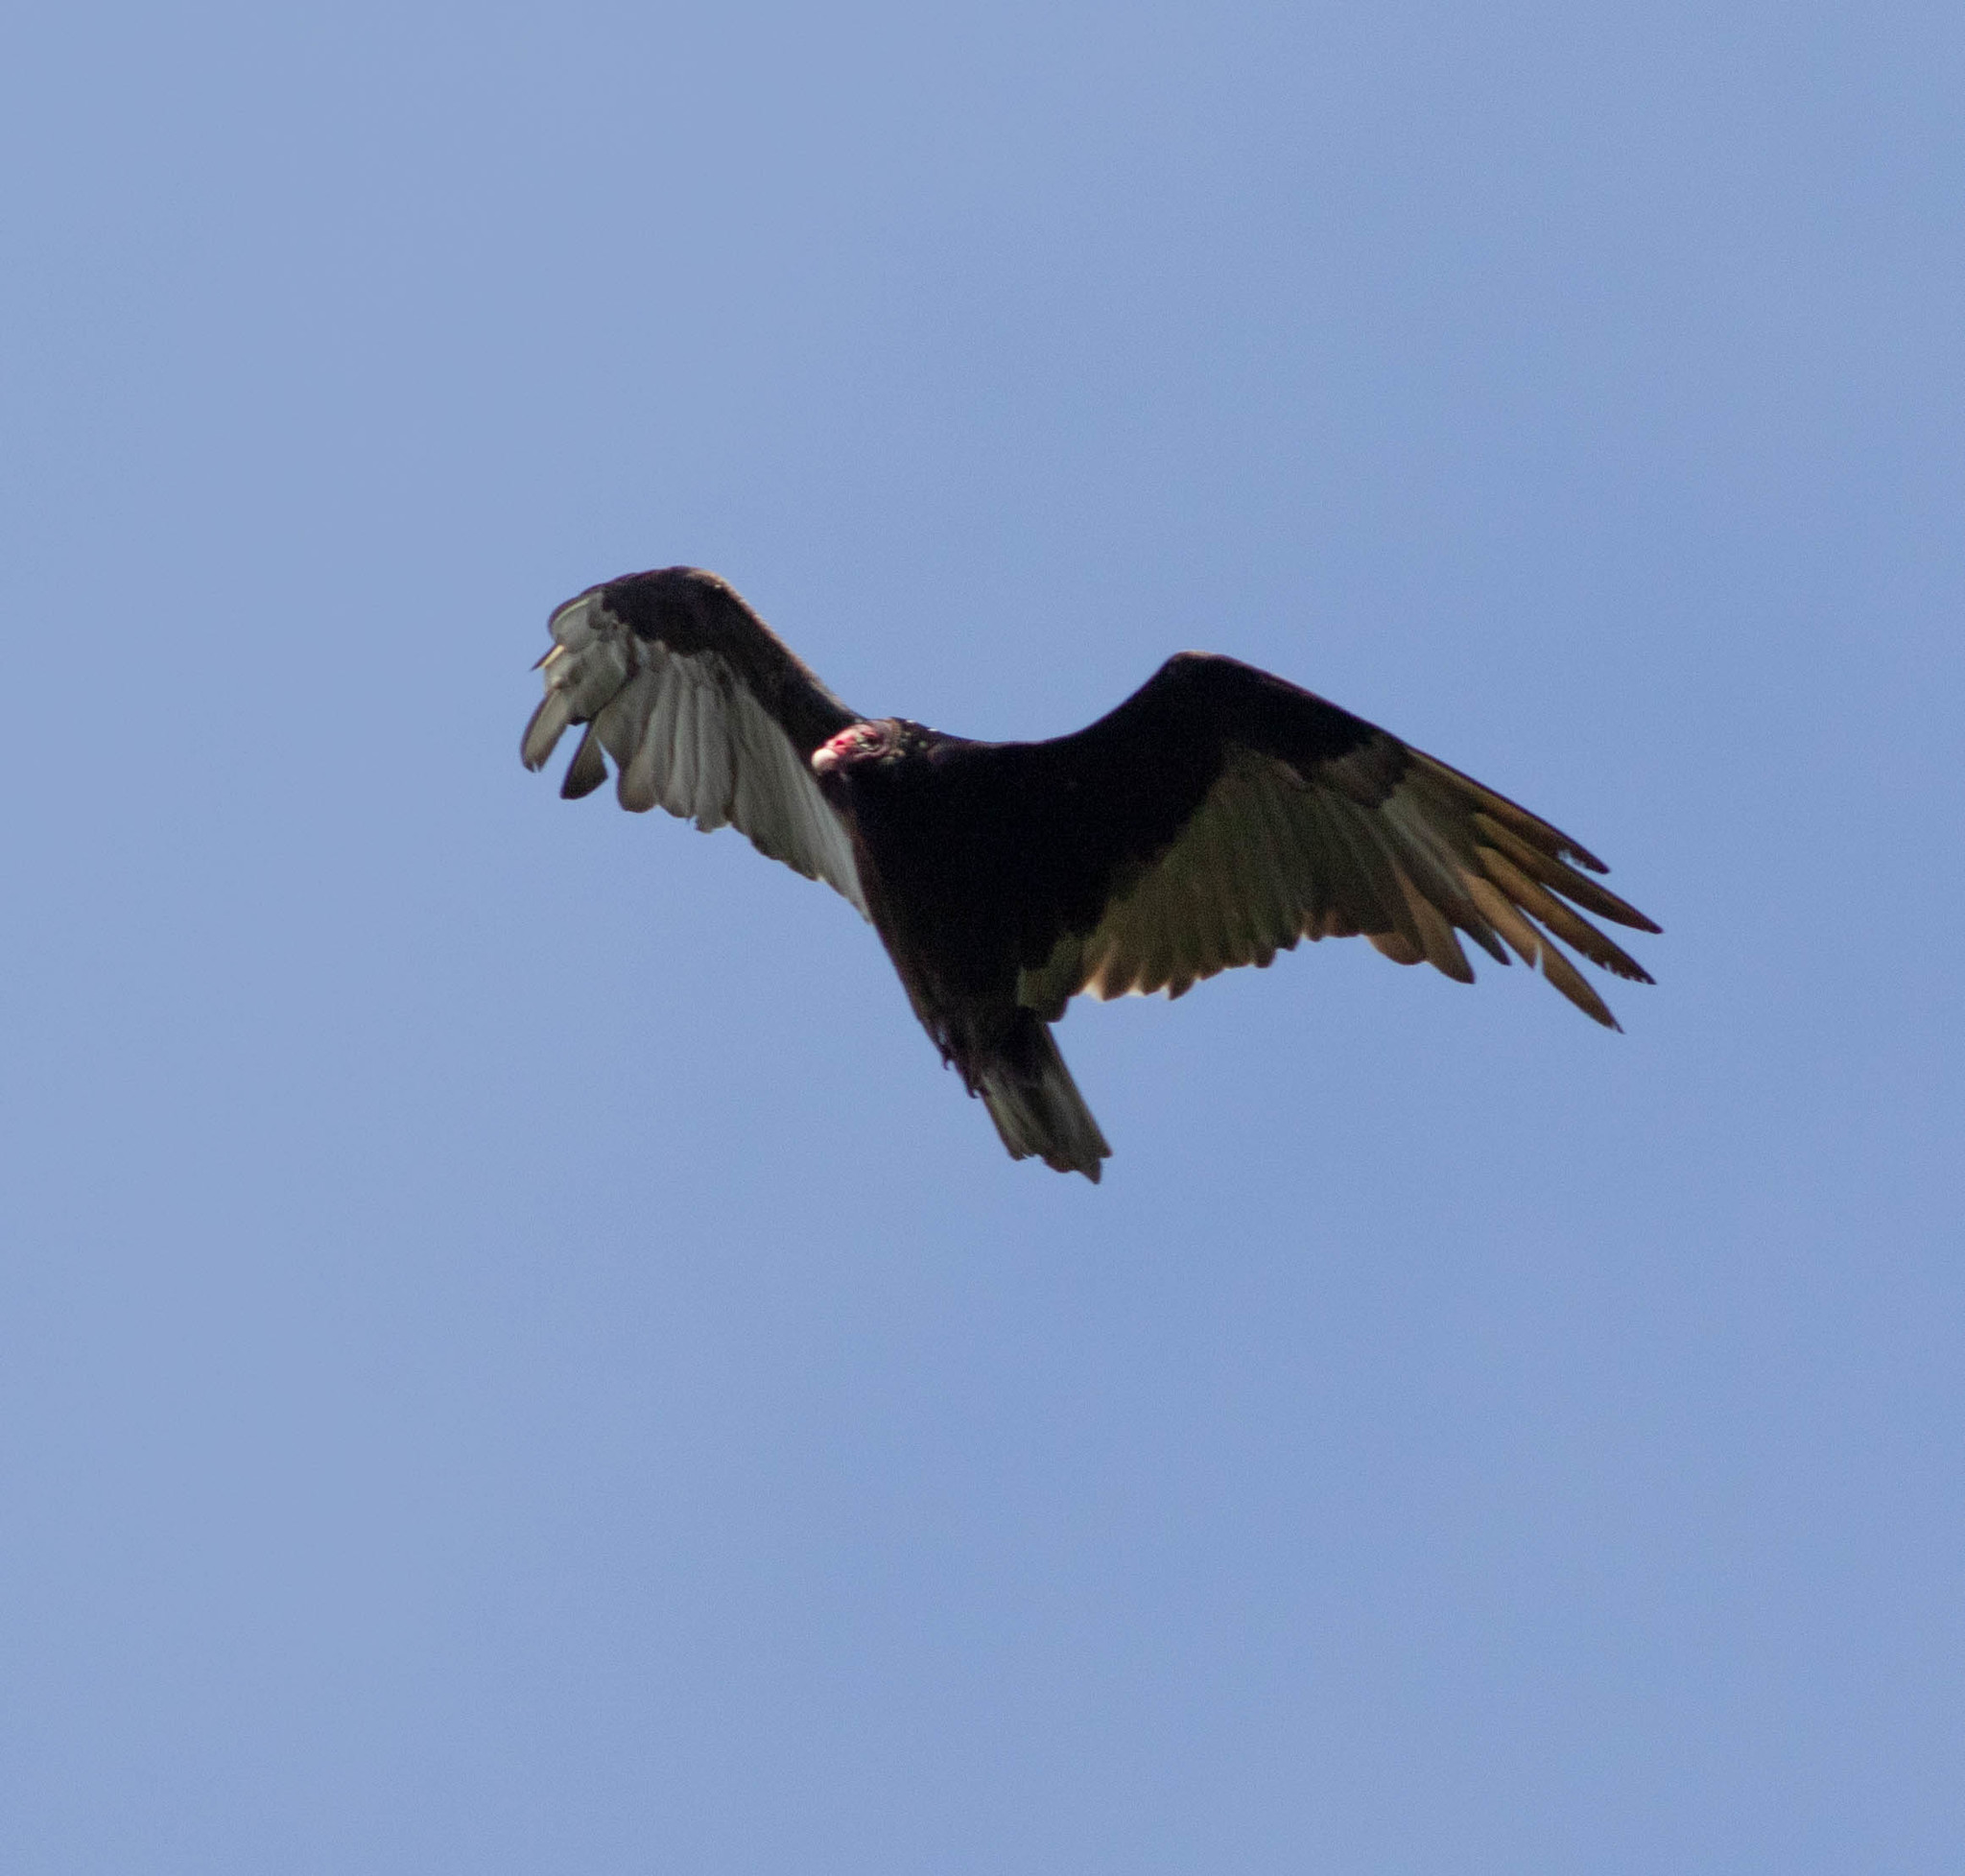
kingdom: Animalia
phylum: Chordata
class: Aves
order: Accipitriformes
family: Cathartidae
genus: Cathartes
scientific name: Cathartes aura
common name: Turkey vulture
